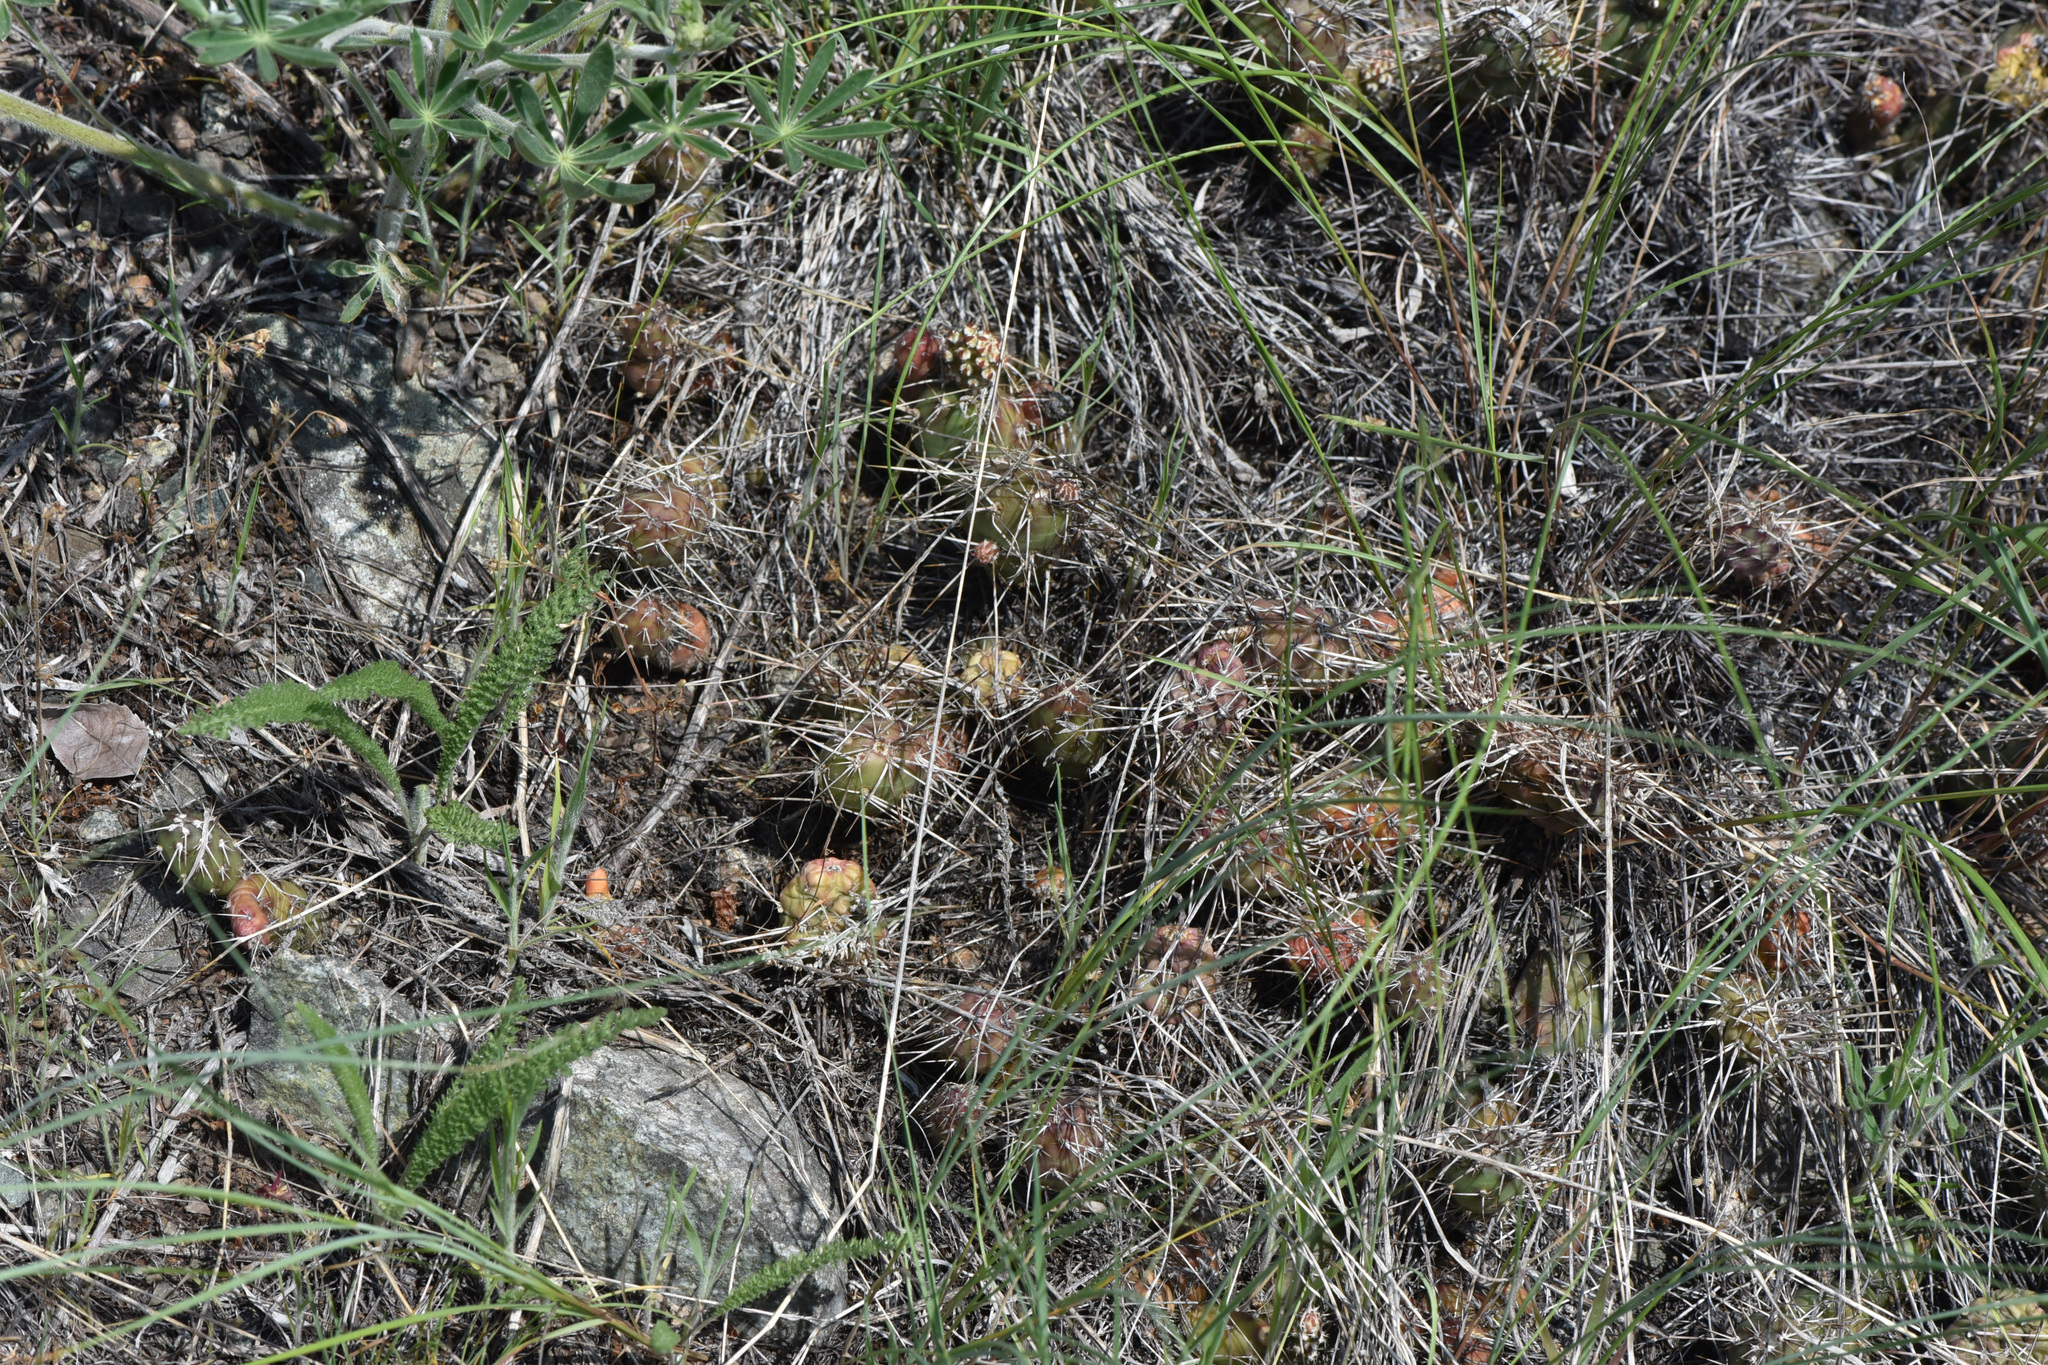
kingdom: Plantae
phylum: Tracheophyta
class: Magnoliopsida
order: Caryophyllales
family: Cactaceae
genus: Opuntia
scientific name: Opuntia fragilis
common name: Brittle cactus
